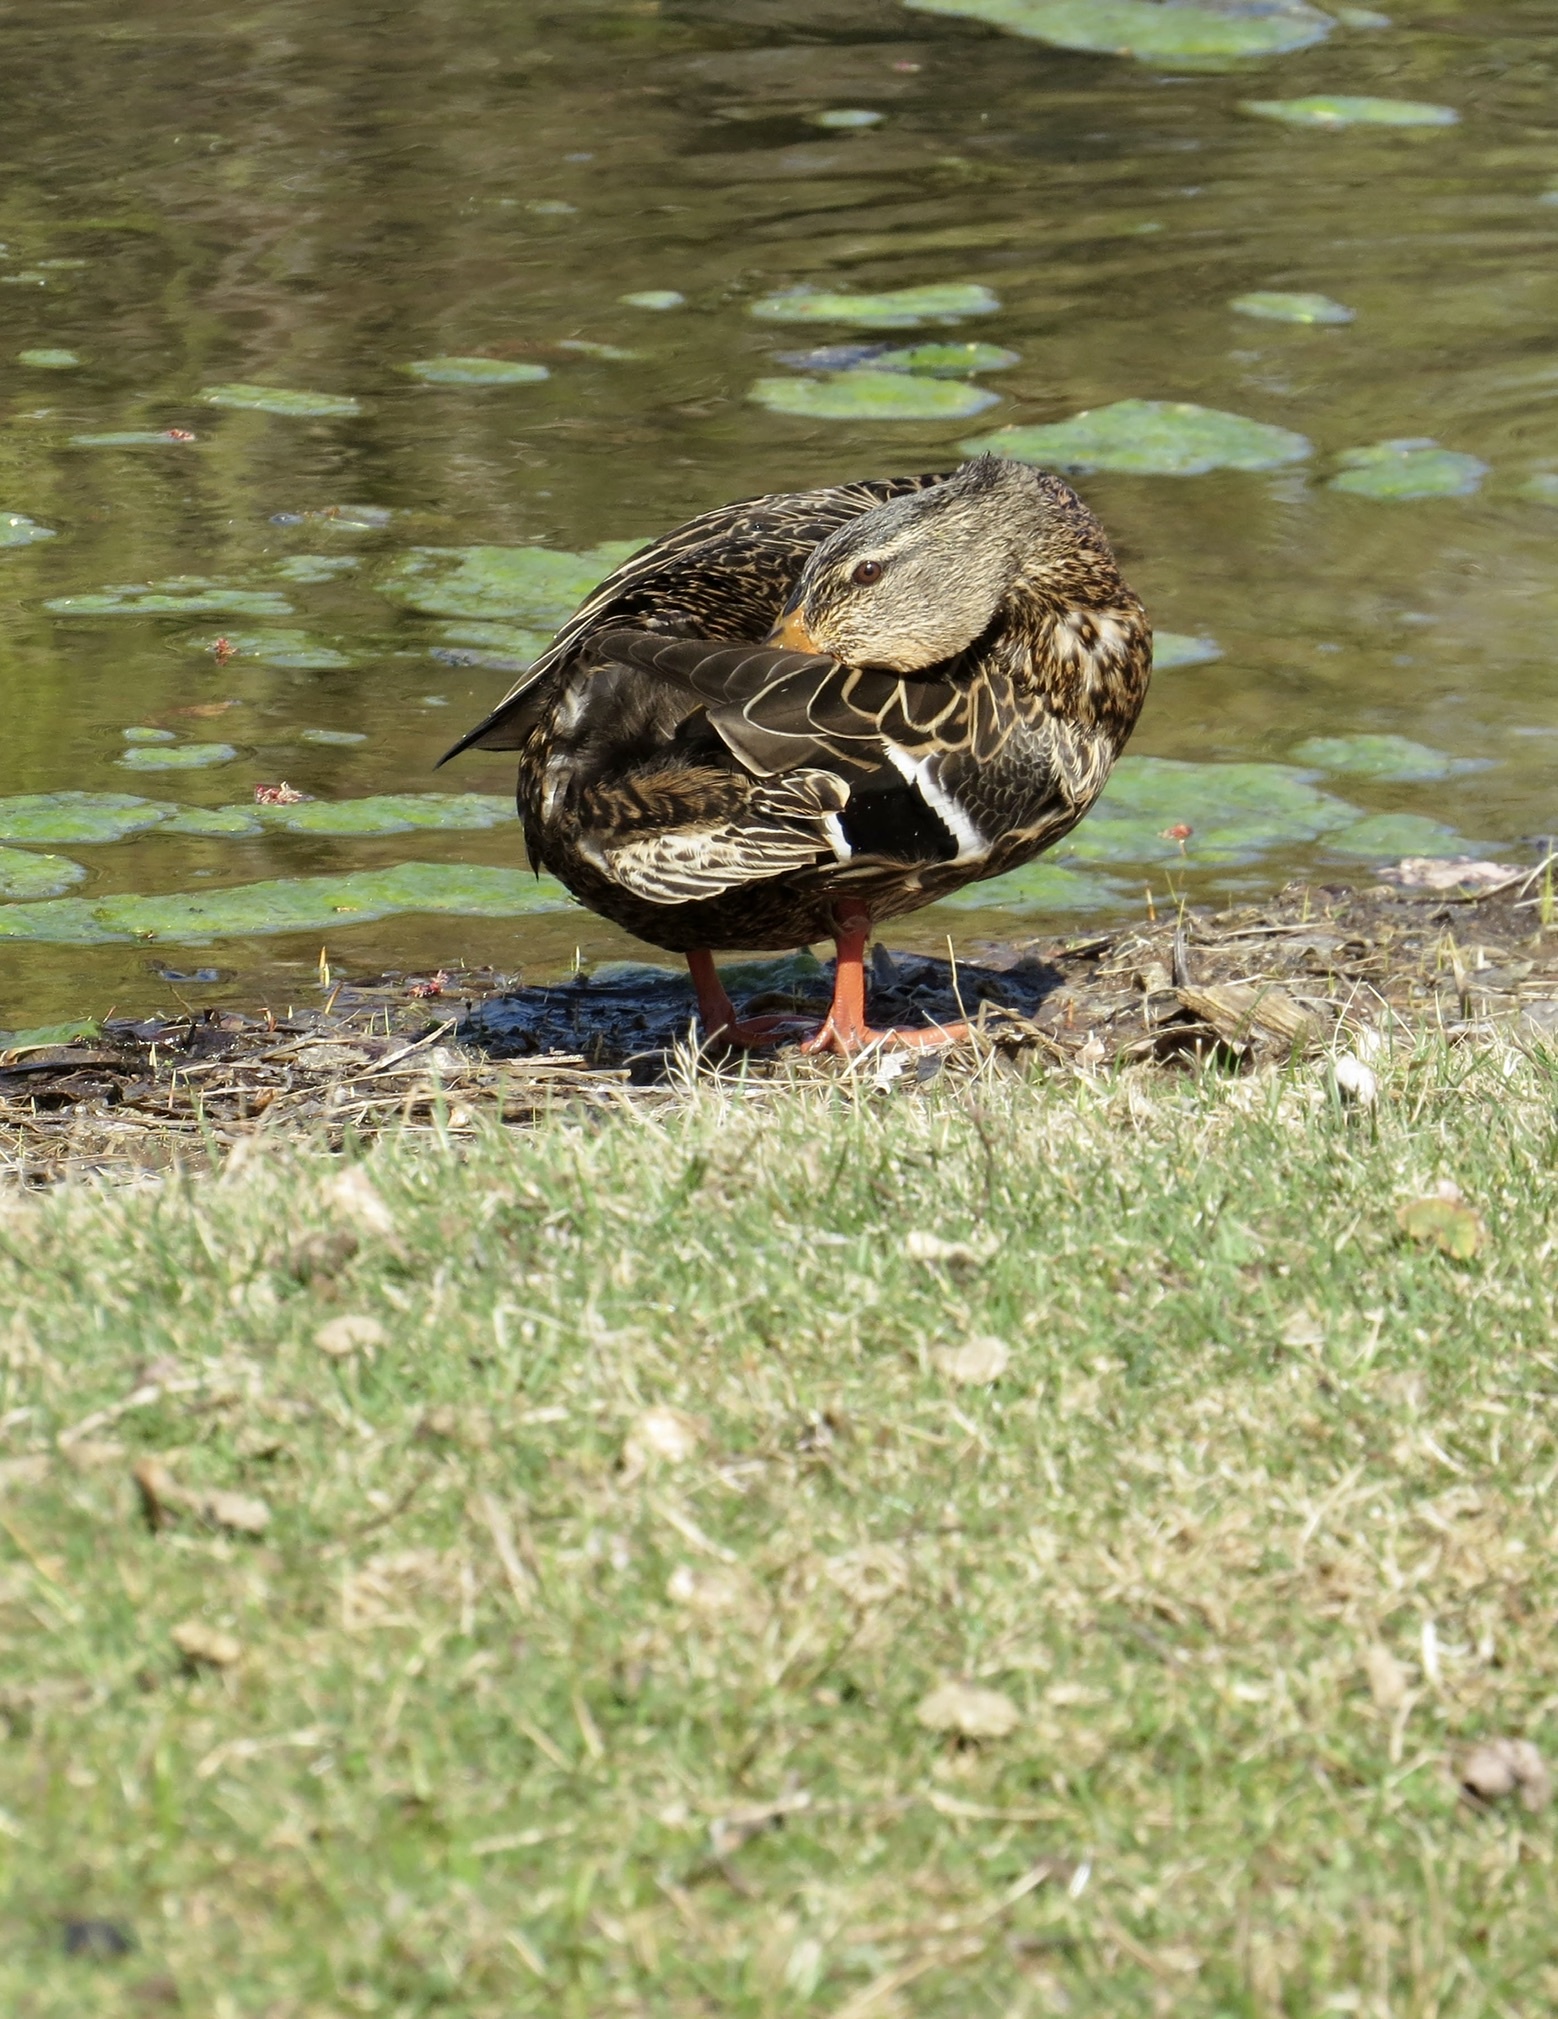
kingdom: Animalia
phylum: Chordata
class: Aves
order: Anseriformes
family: Anatidae
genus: Anas
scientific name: Anas platyrhynchos
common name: Mallard
